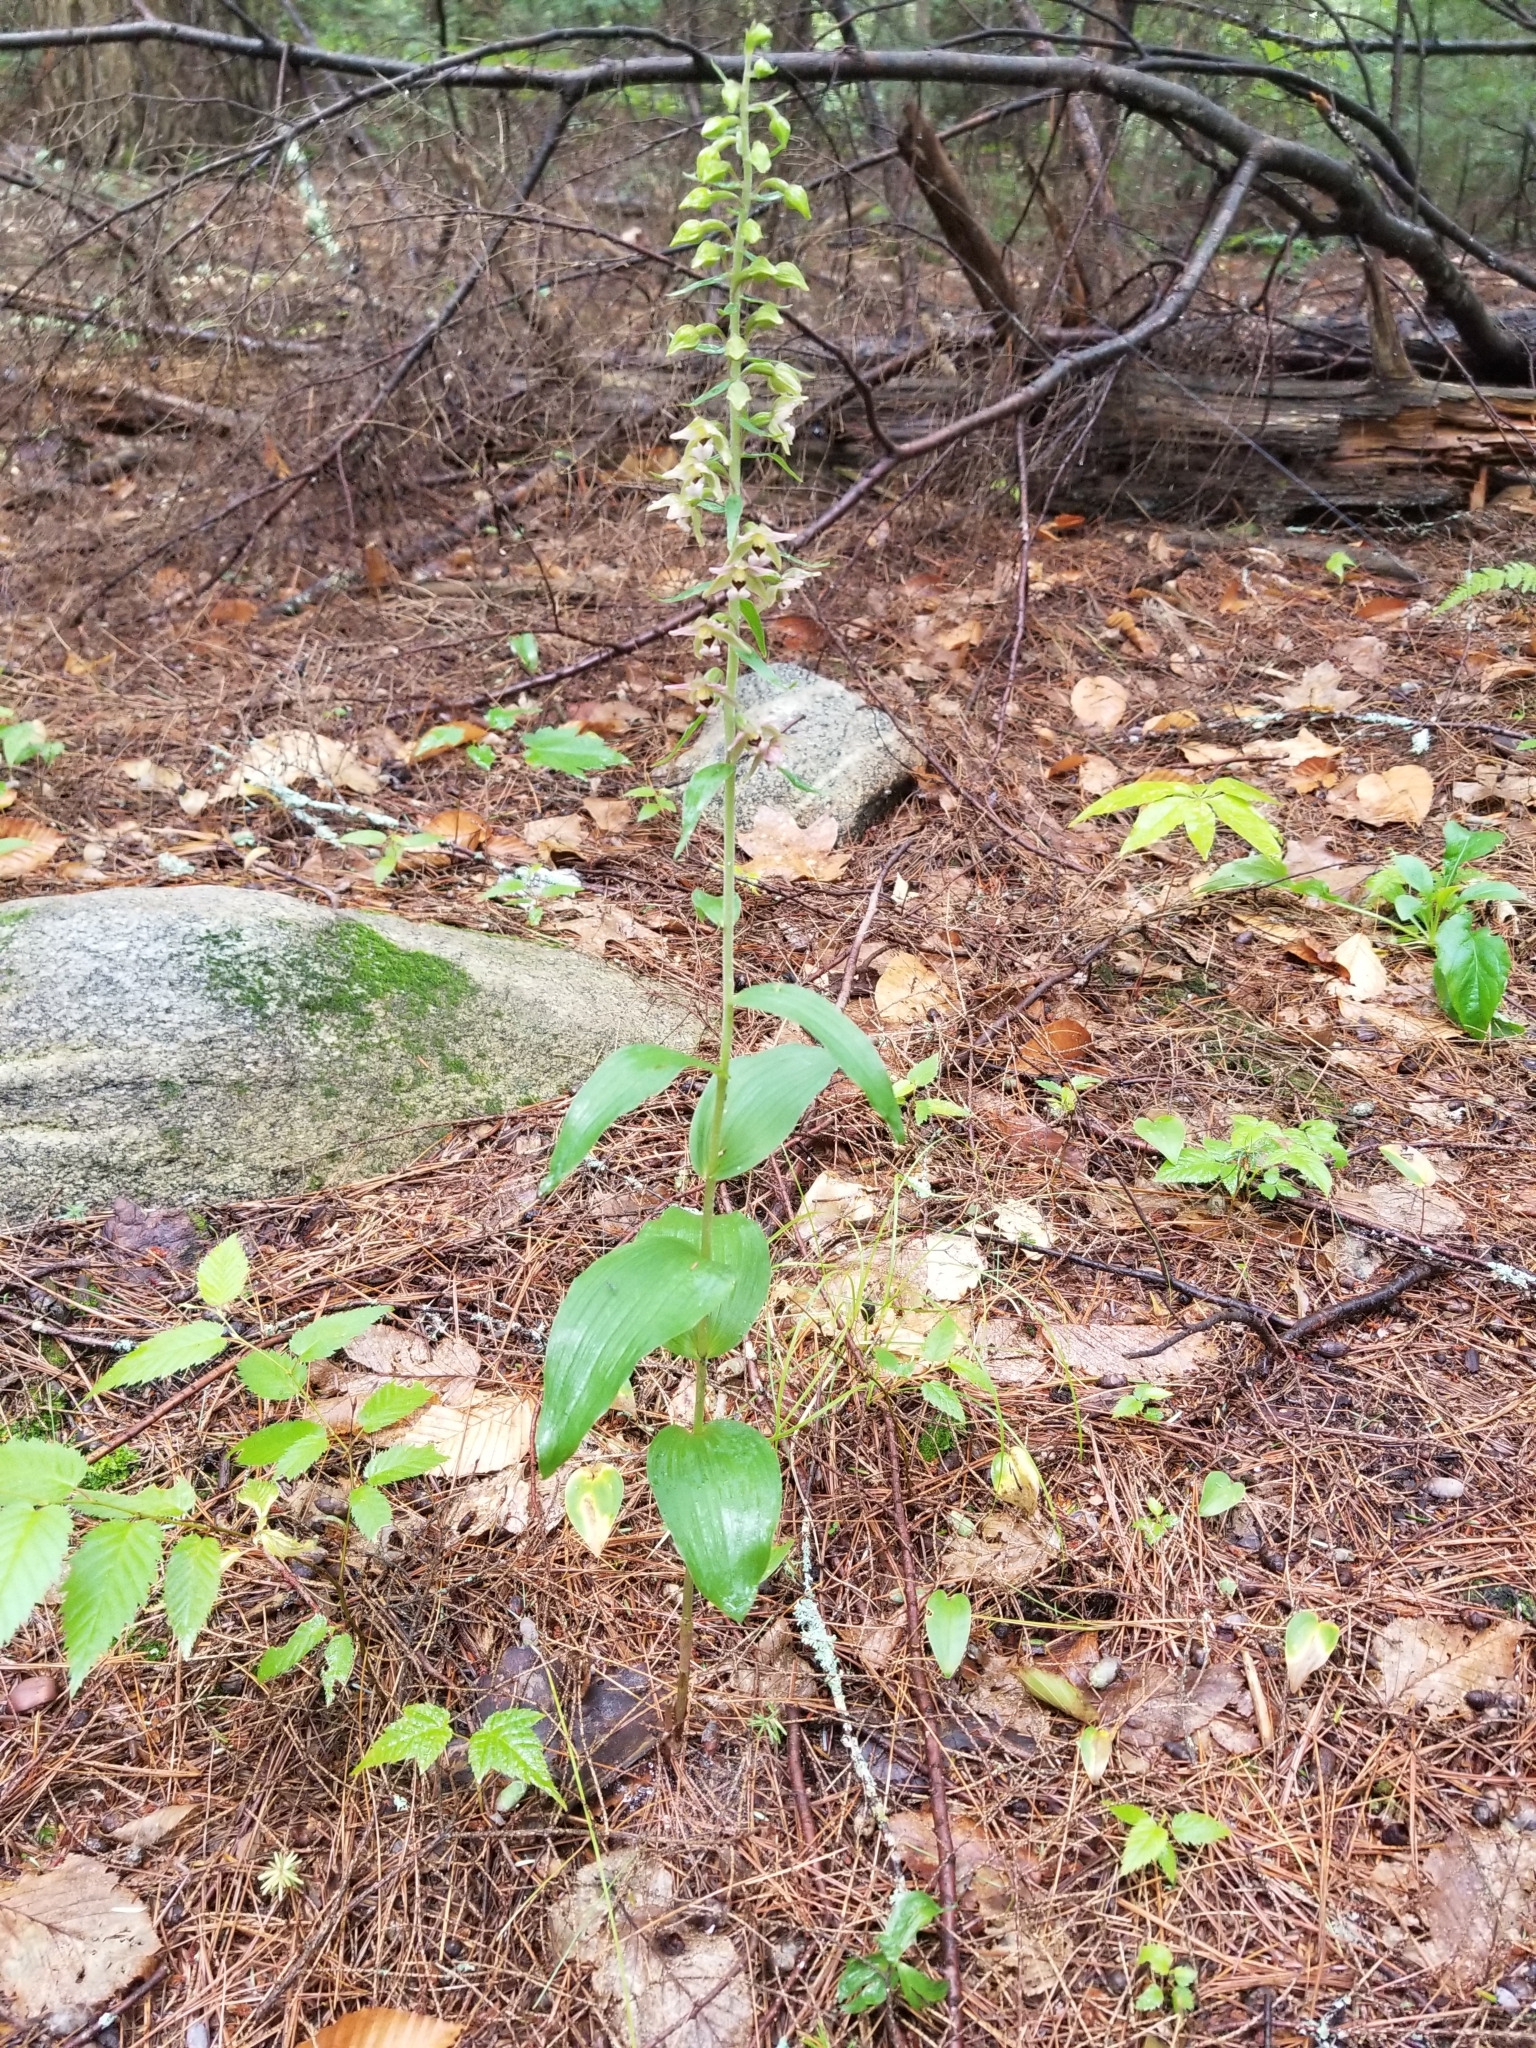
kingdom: Plantae
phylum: Tracheophyta
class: Liliopsida
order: Asparagales
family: Orchidaceae
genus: Epipactis
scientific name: Epipactis helleborine
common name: Broad-leaved helleborine
